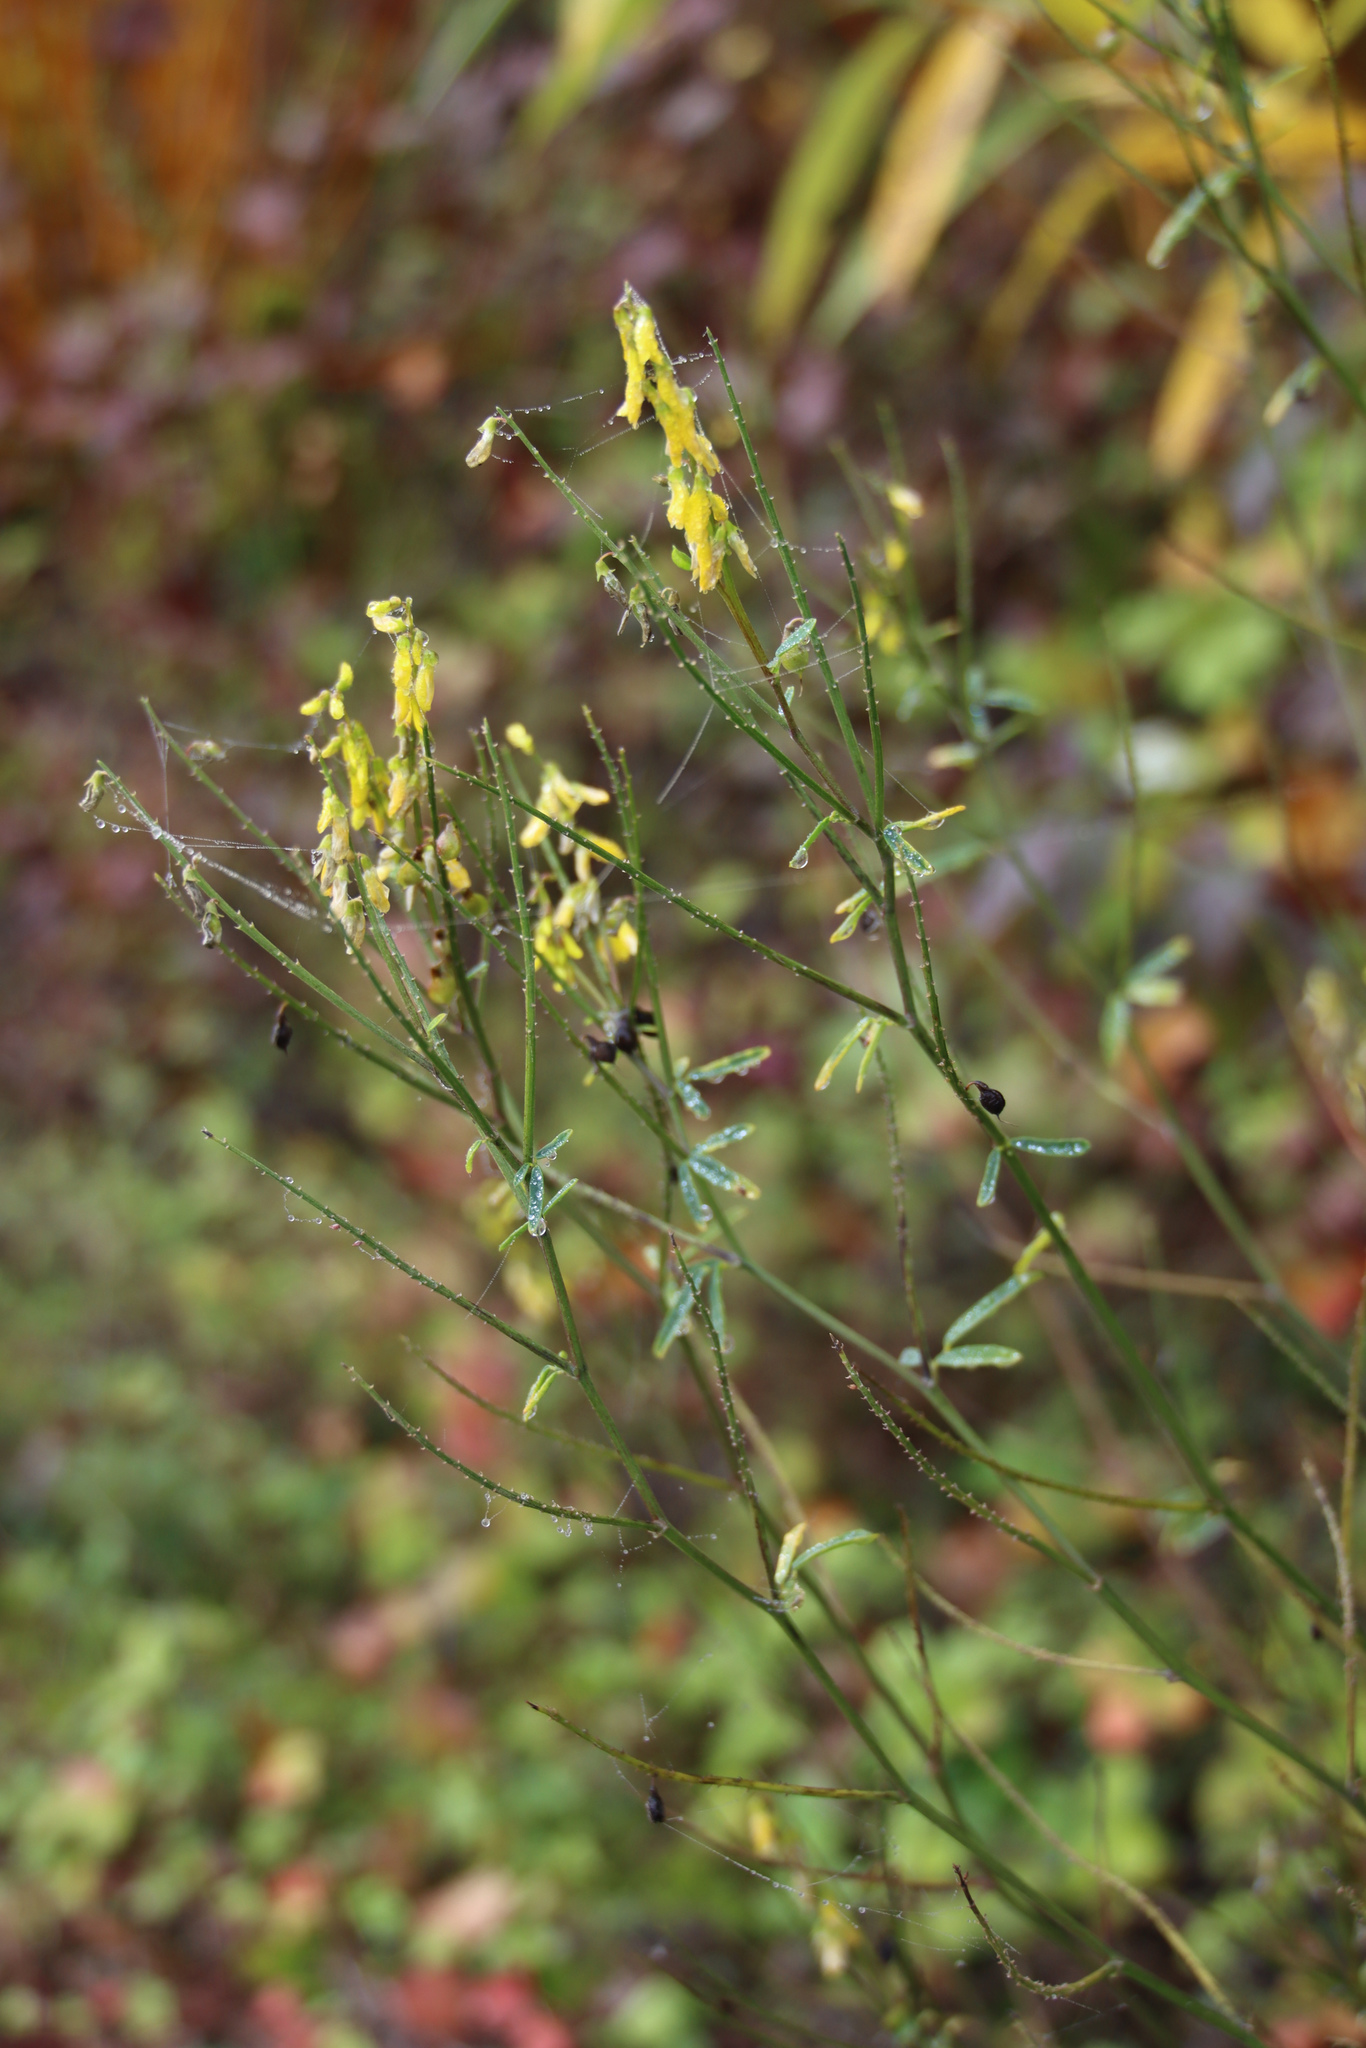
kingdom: Plantae
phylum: Tracheophyta
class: Magnoliopsida
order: Fabales
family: Fabaceae
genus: Melilotus
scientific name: Melilotus officinalis
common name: Sweetclover
